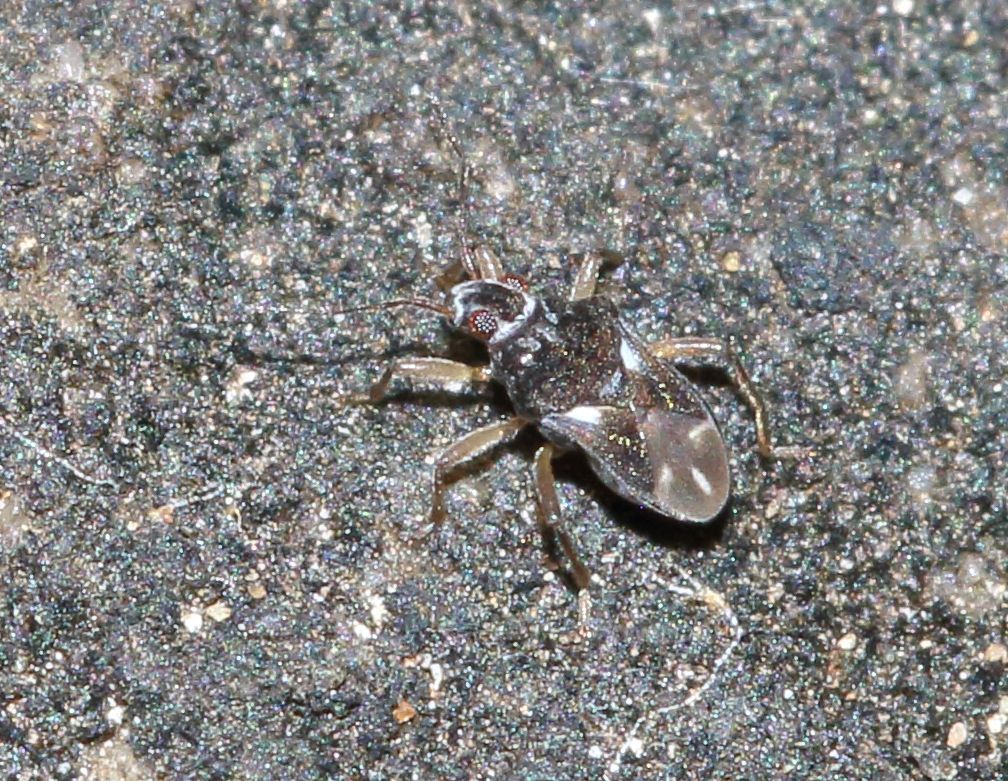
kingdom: Animalia
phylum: Arthropoda
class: Insecta
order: Hemiptera
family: Hebridae
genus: Hebrus
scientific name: Hebrus
